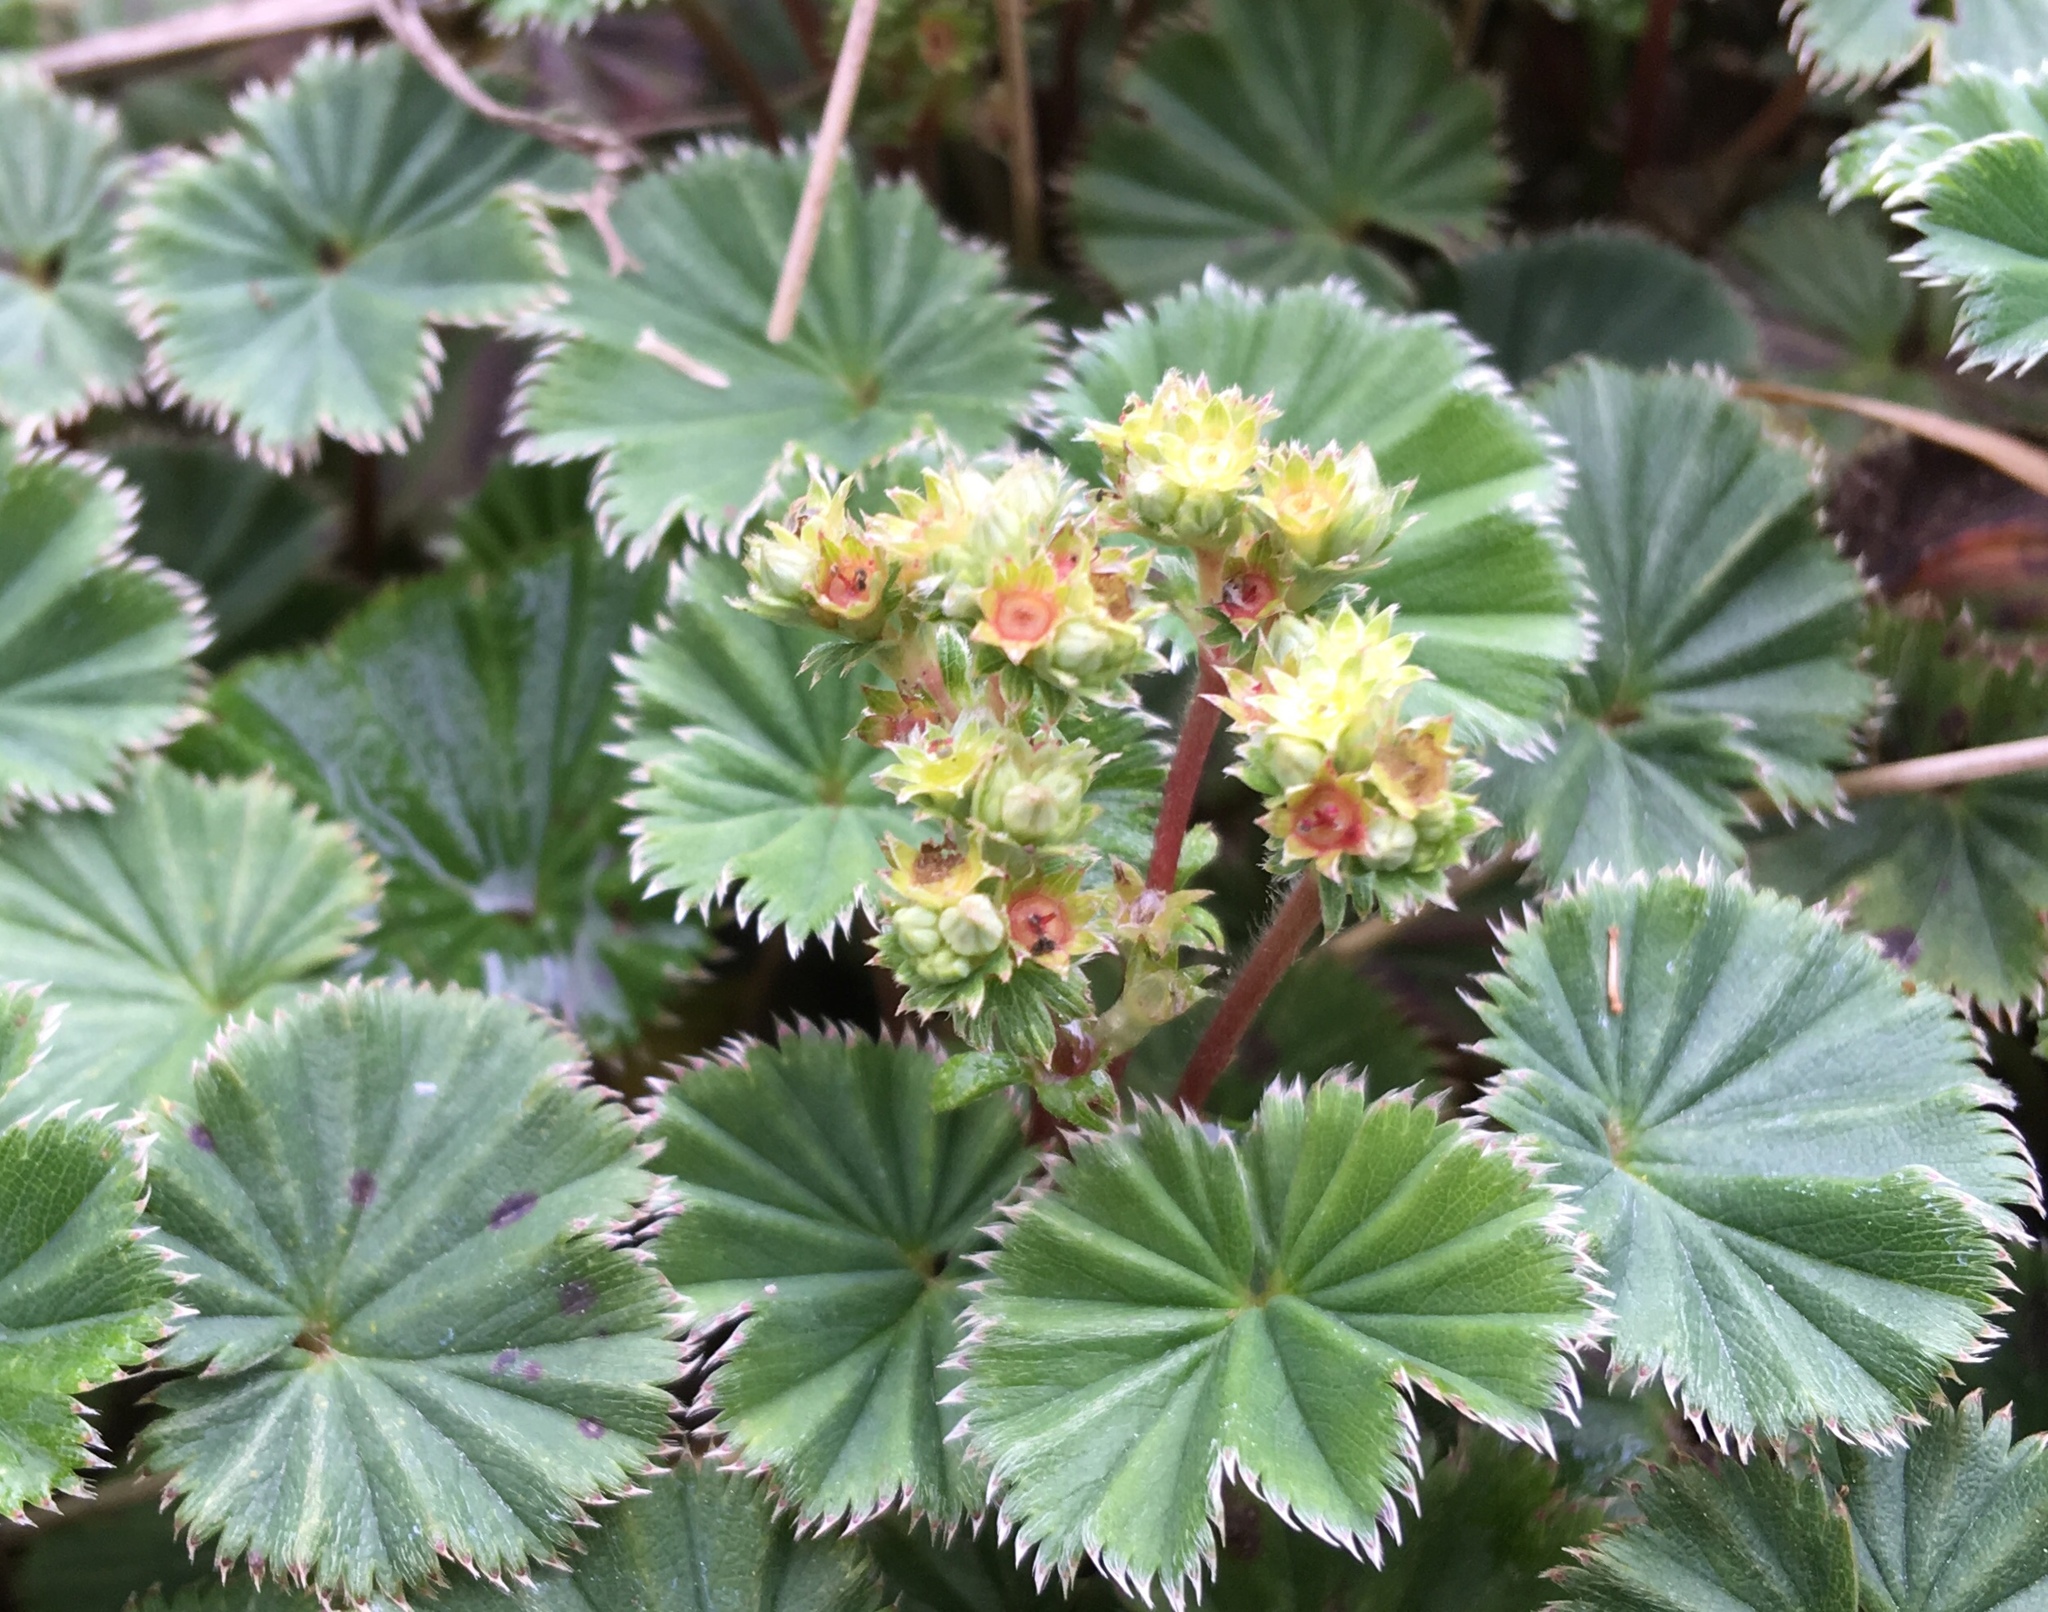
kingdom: Plantae
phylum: Tracheophyta
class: Magnoliopsida
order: Rosales
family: Rosaceae
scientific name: Rosaceae
